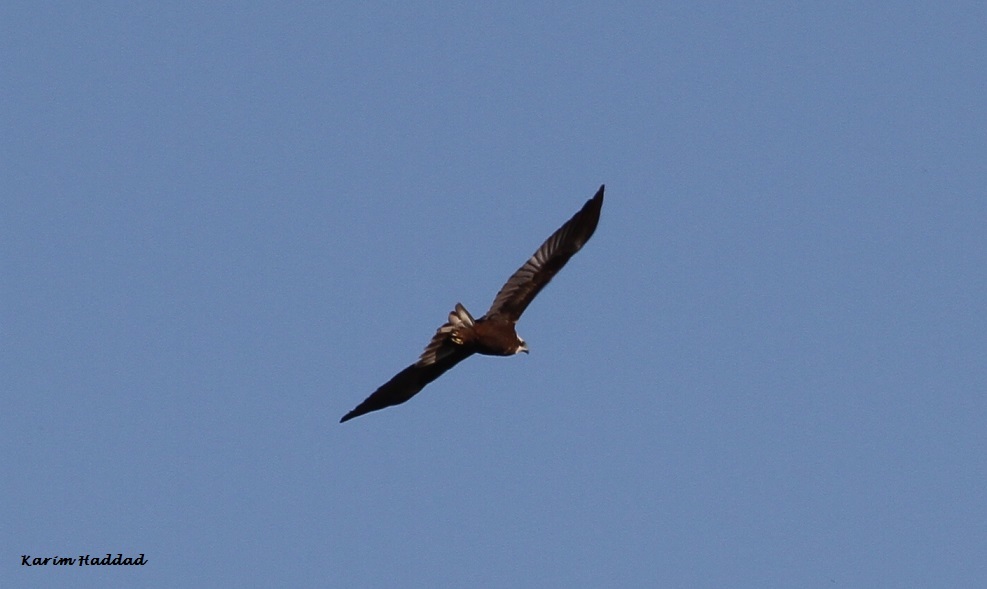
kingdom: Animalia
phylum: Chordata
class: Aves
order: Accipitriformes
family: Accipitridae
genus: Circus
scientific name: Circus aeruginosus
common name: Western marsh harrier
